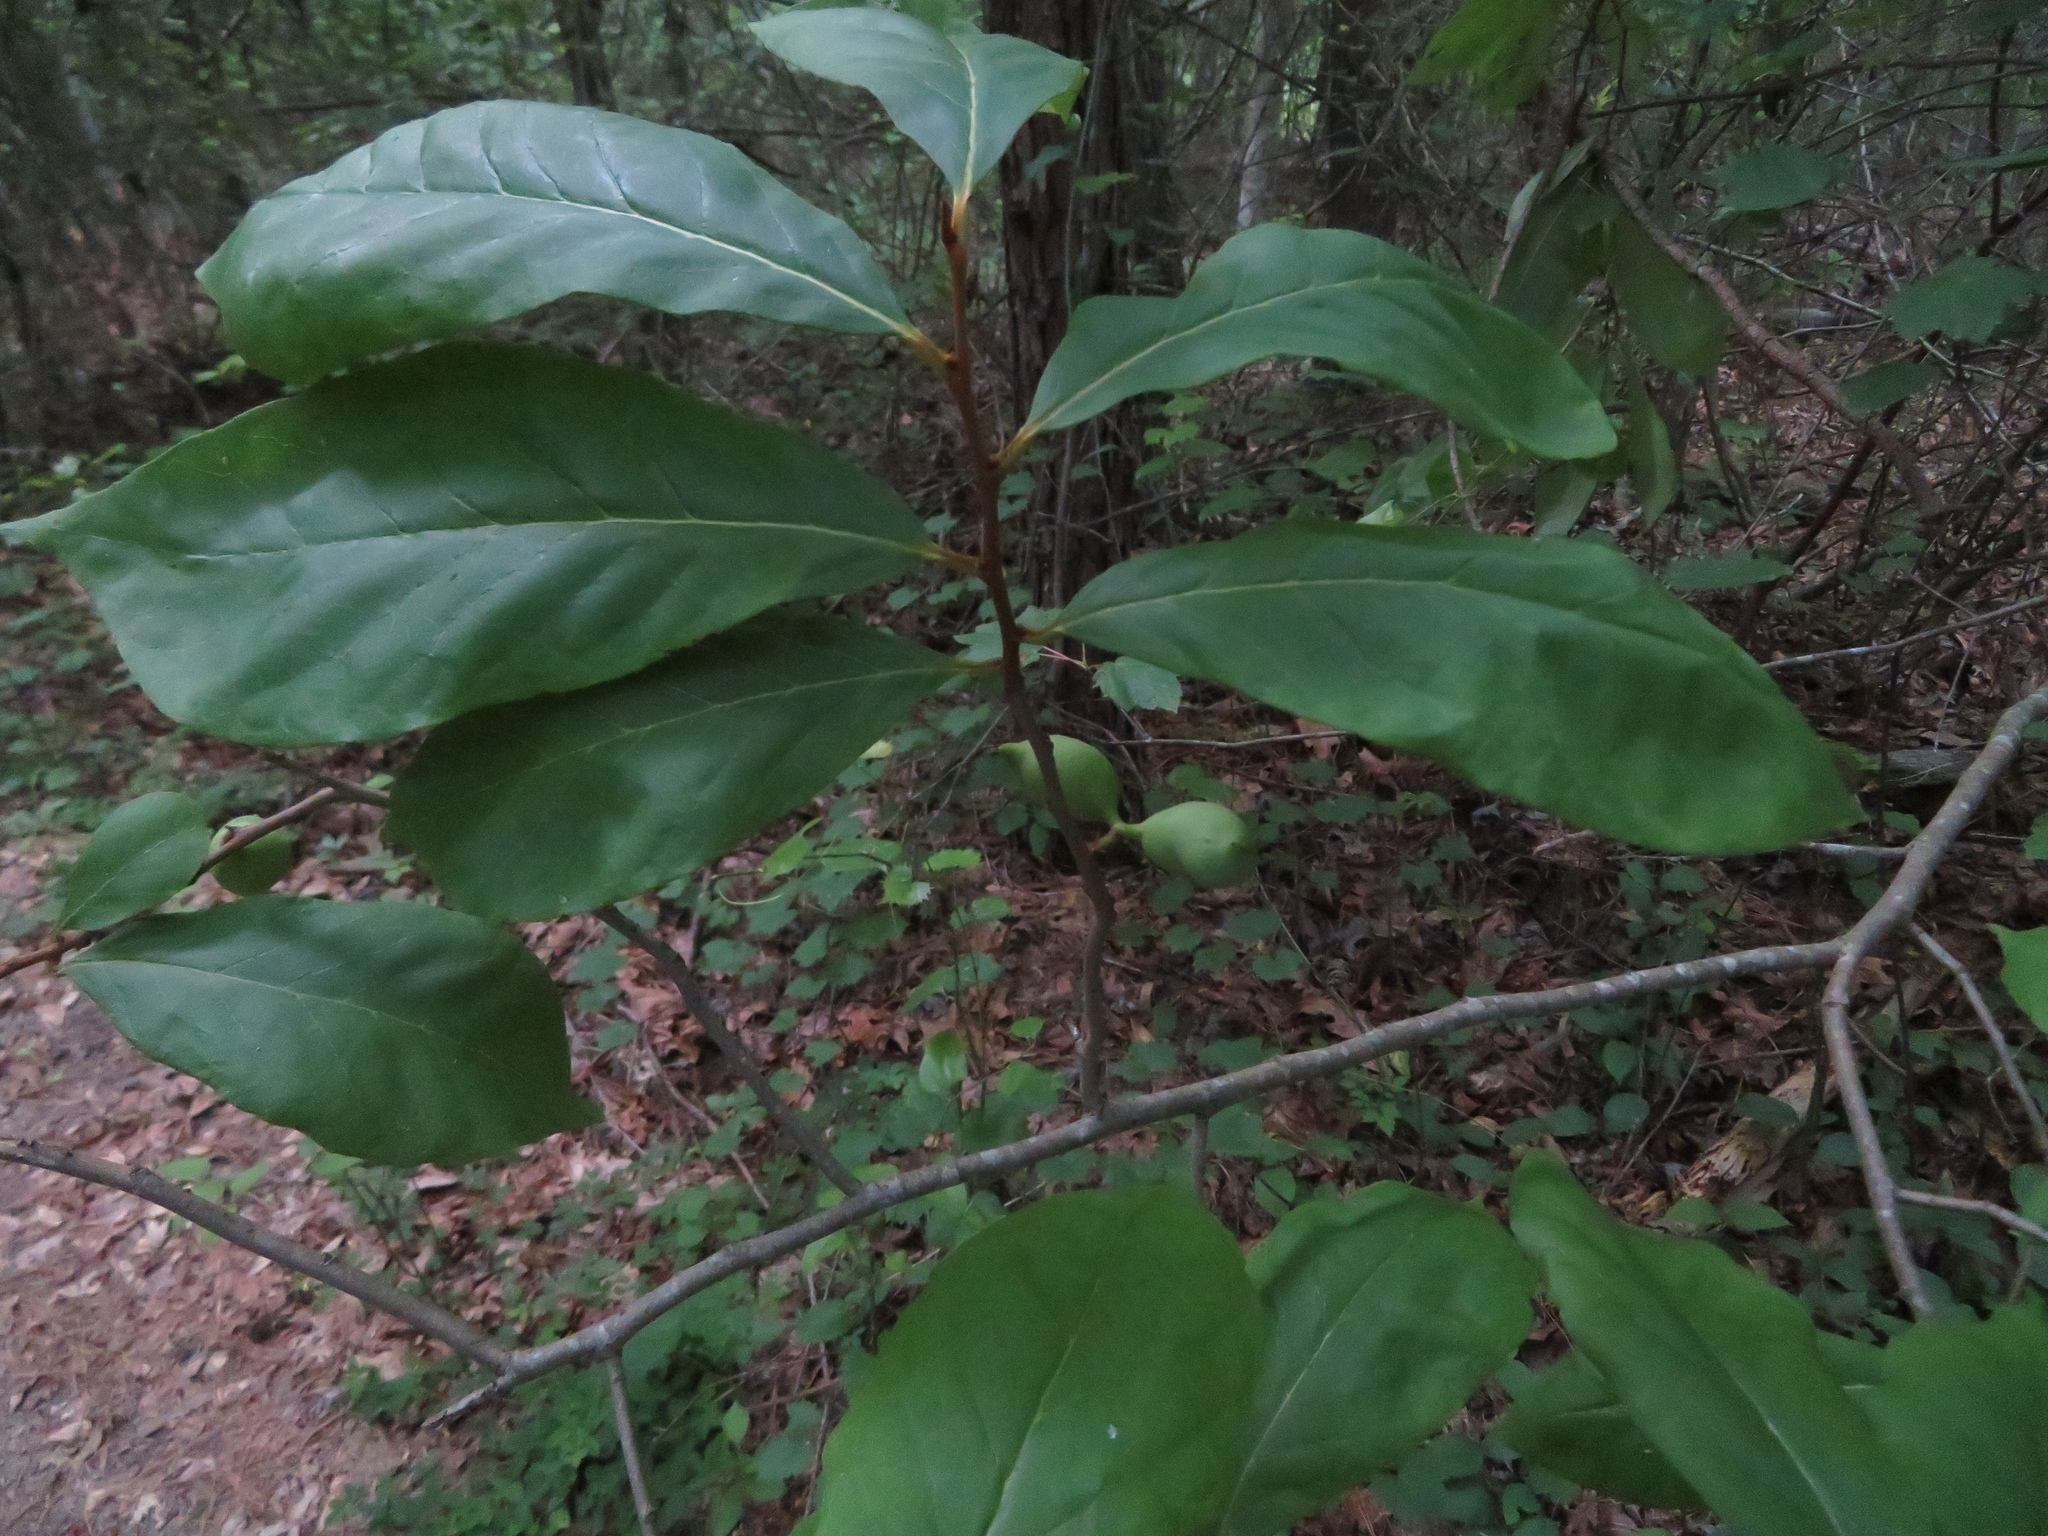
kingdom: Plantae
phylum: Tracheophyta
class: Magnoliopsida
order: Magnoliales
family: Annonaceae
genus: Asimina
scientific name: Asimina parviflora
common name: Dwarf pawpaw
